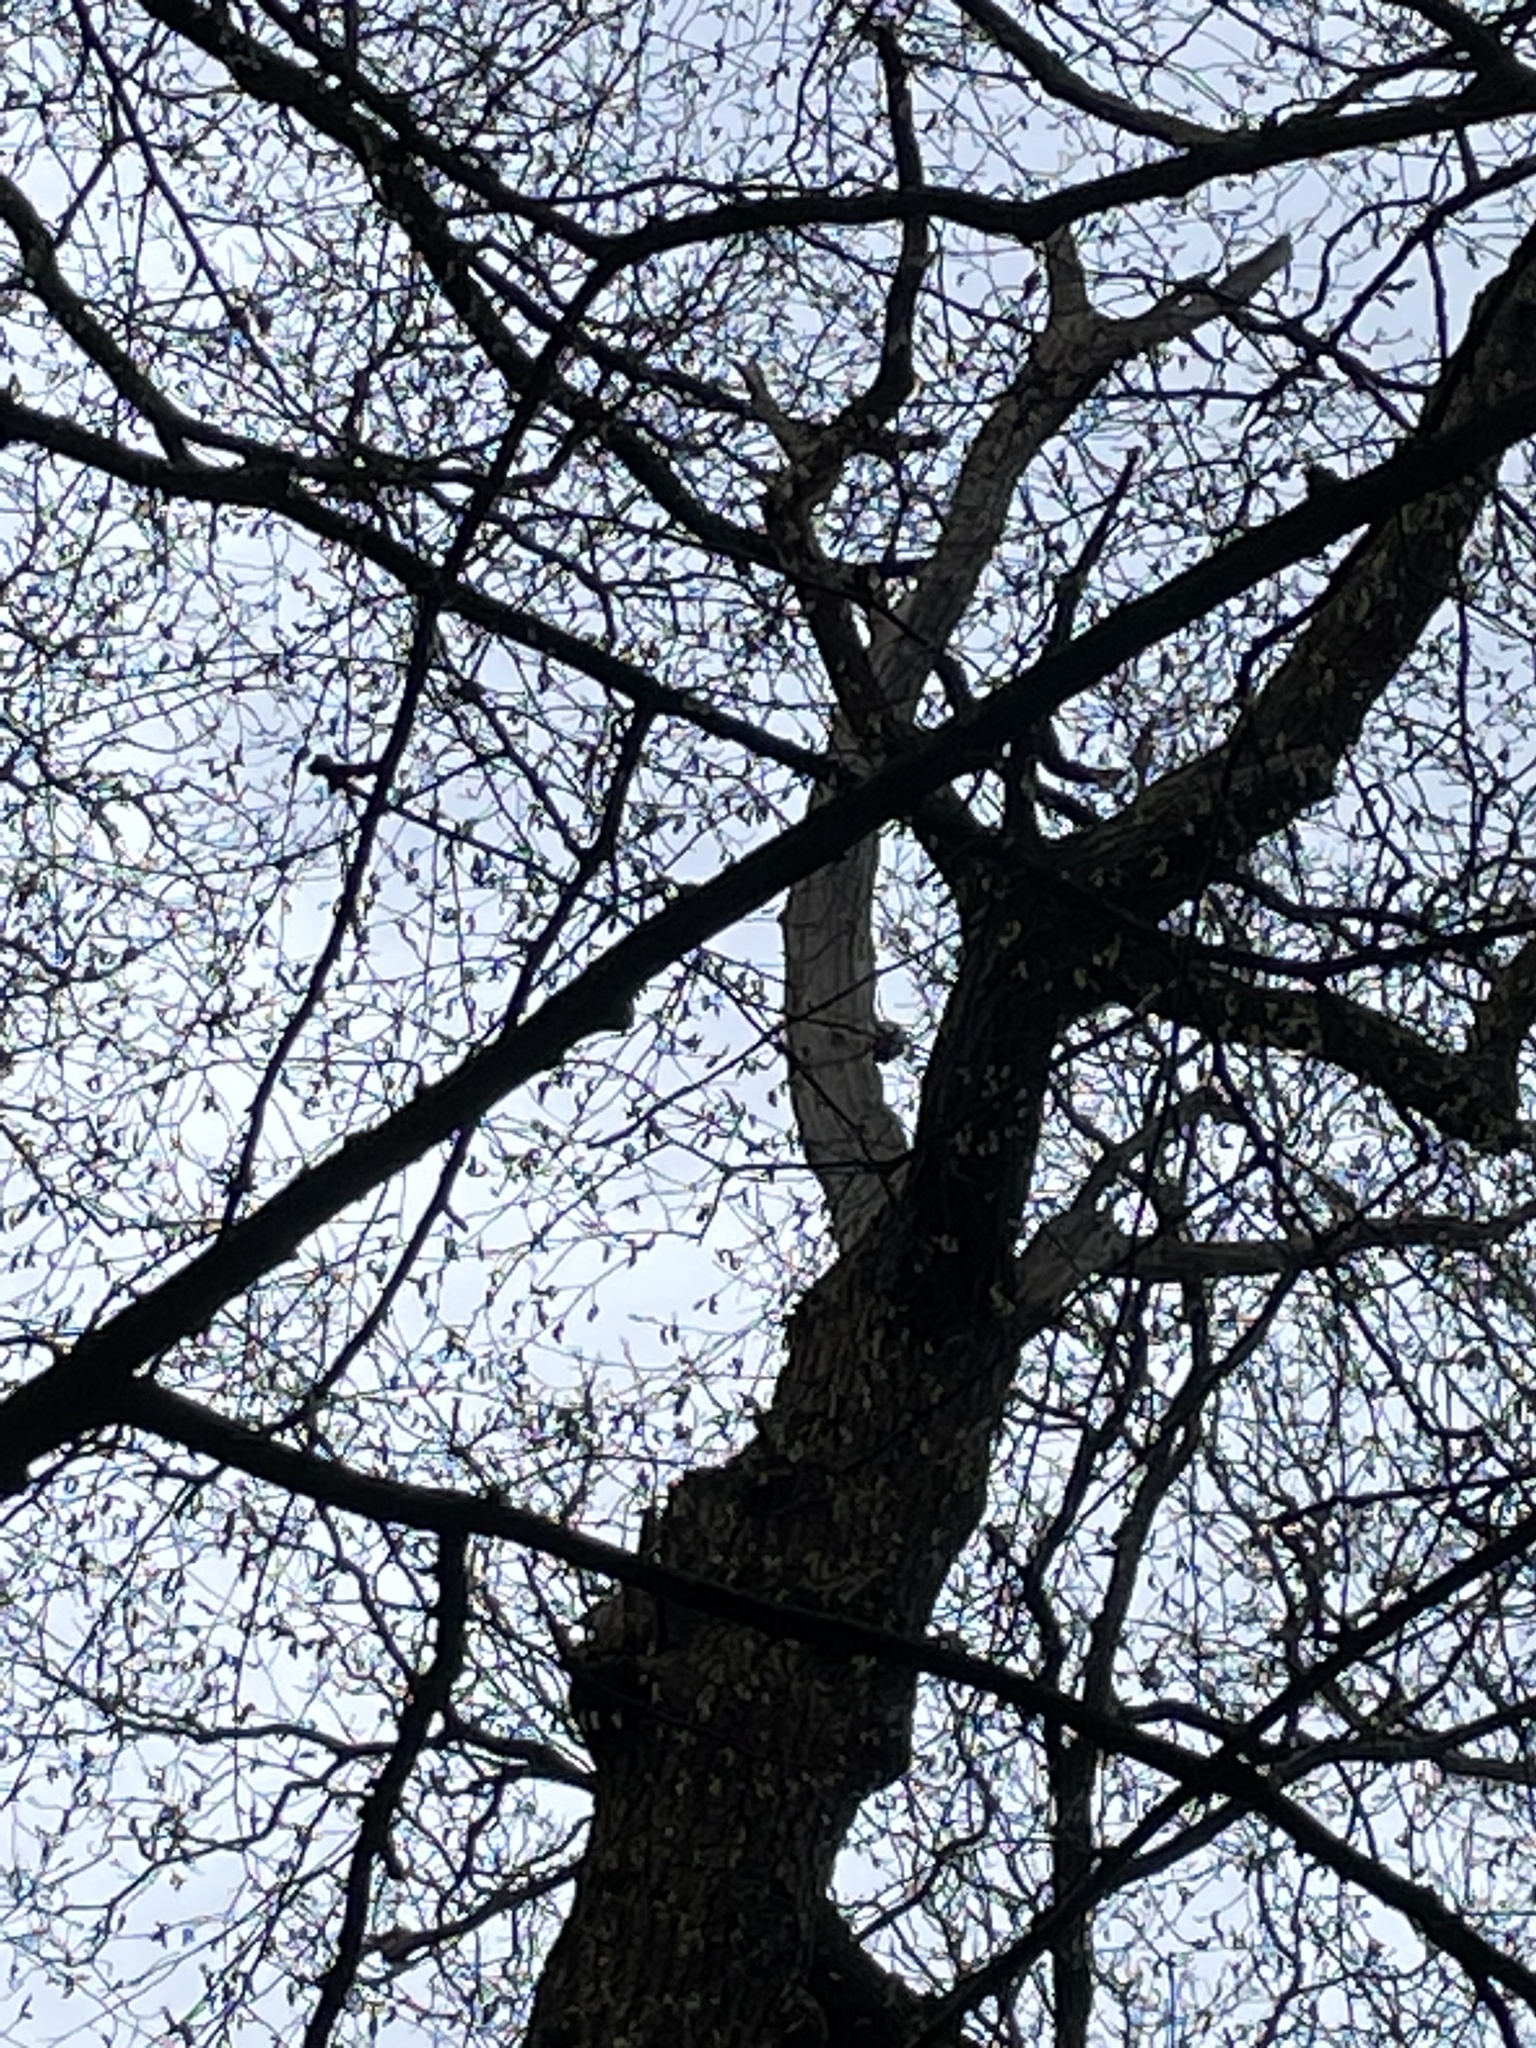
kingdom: Animalia
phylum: Chordata
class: Aves
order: Piciformes
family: Picidae
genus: Dendrocopos
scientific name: Dendrocopos major
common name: Great spotted woodpecker
